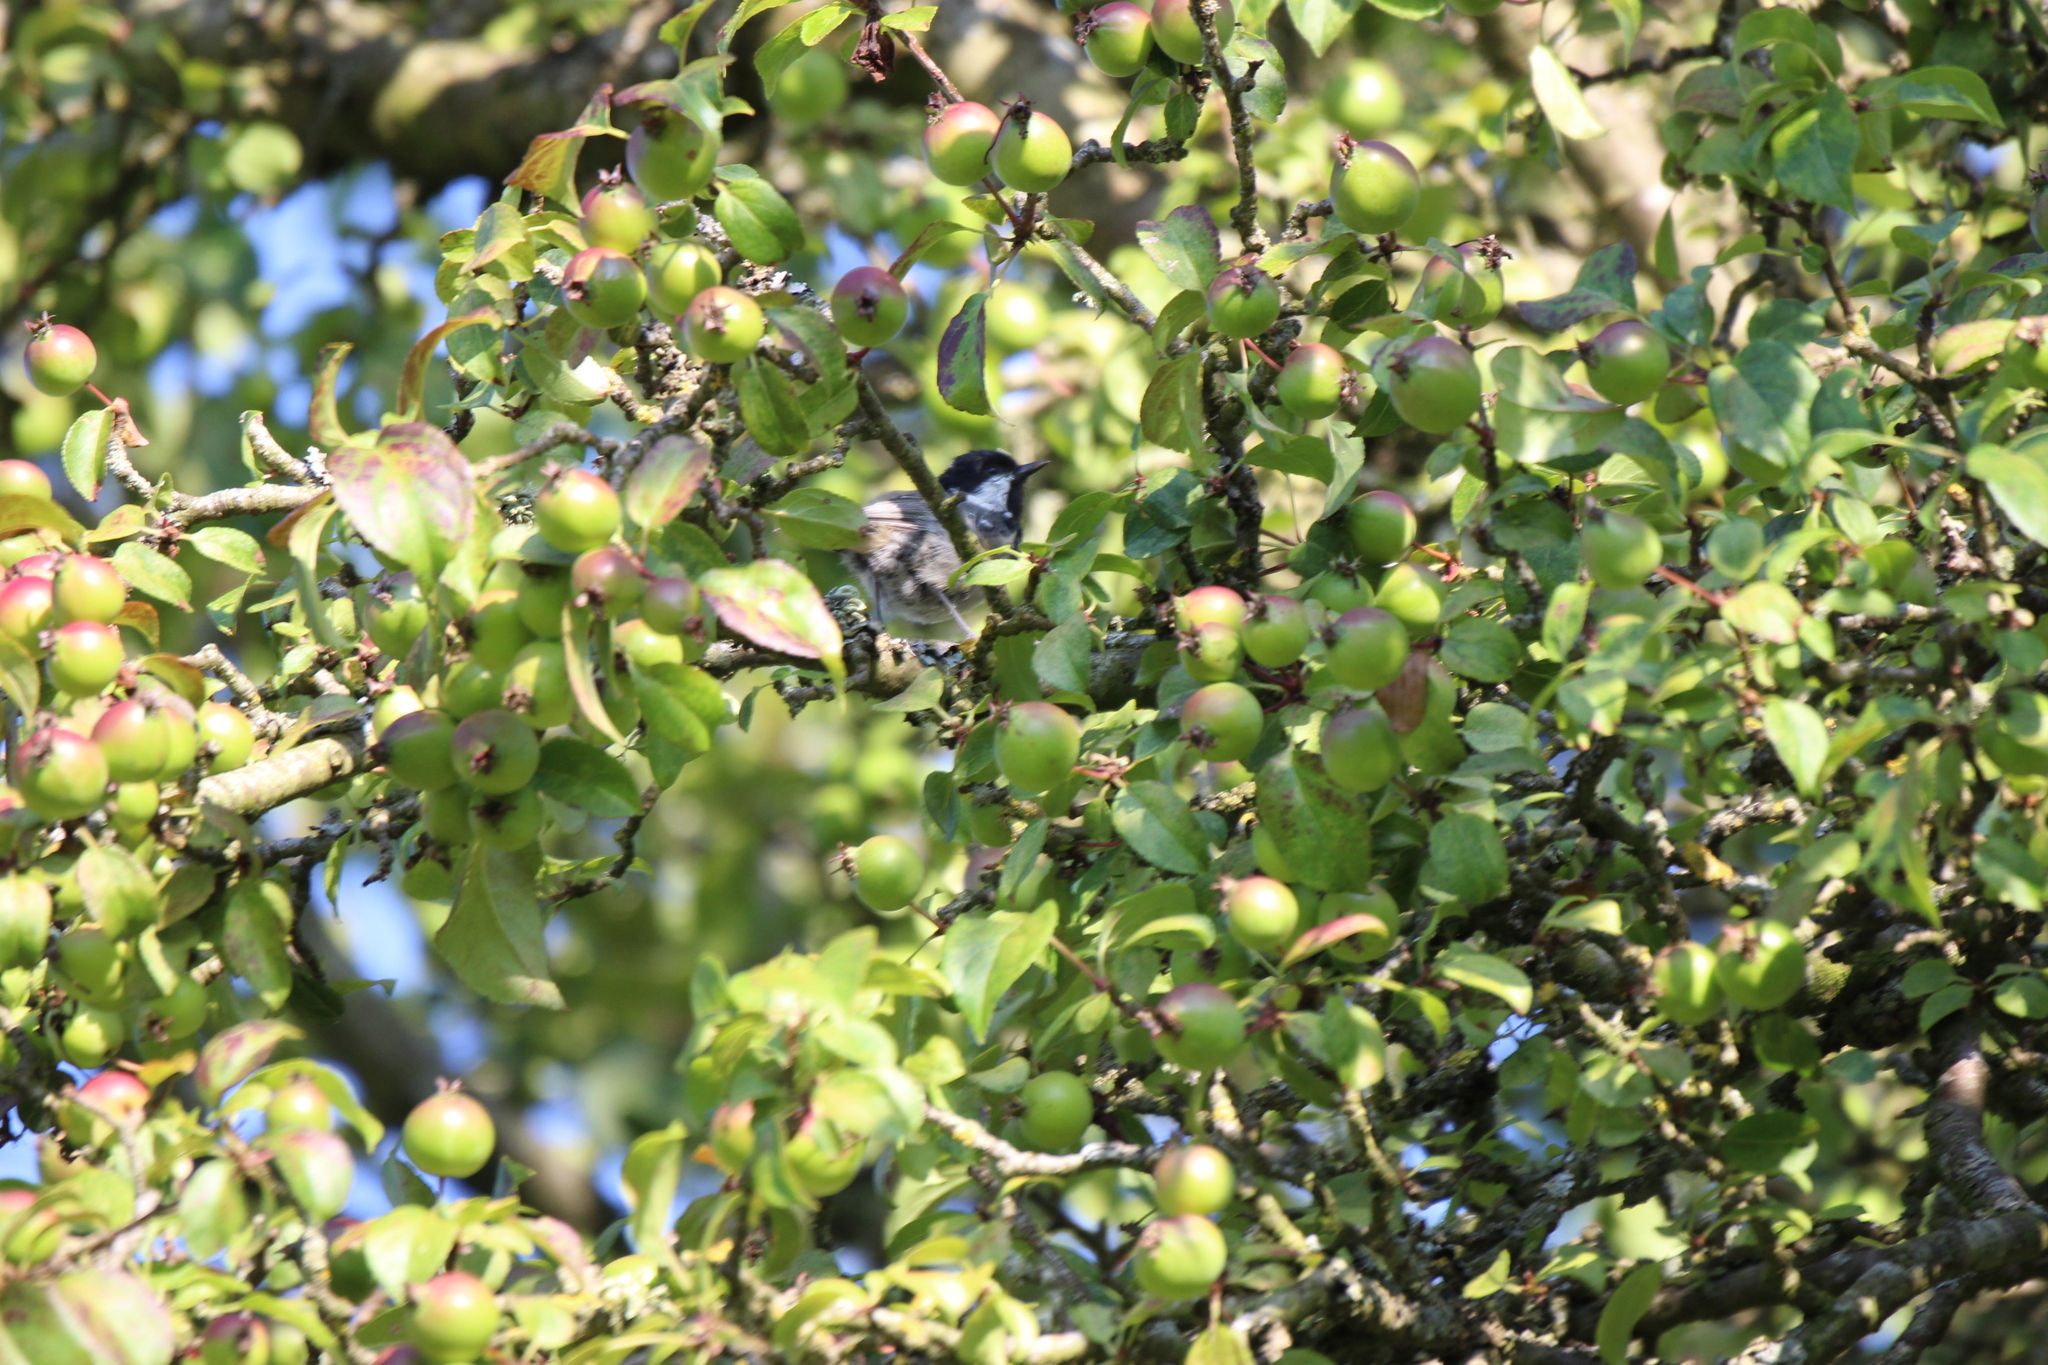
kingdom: Animalia
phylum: Chordata
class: Aves
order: Passeriformes
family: Paridae
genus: Periparus
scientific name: Periparus ater
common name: Coal tit
